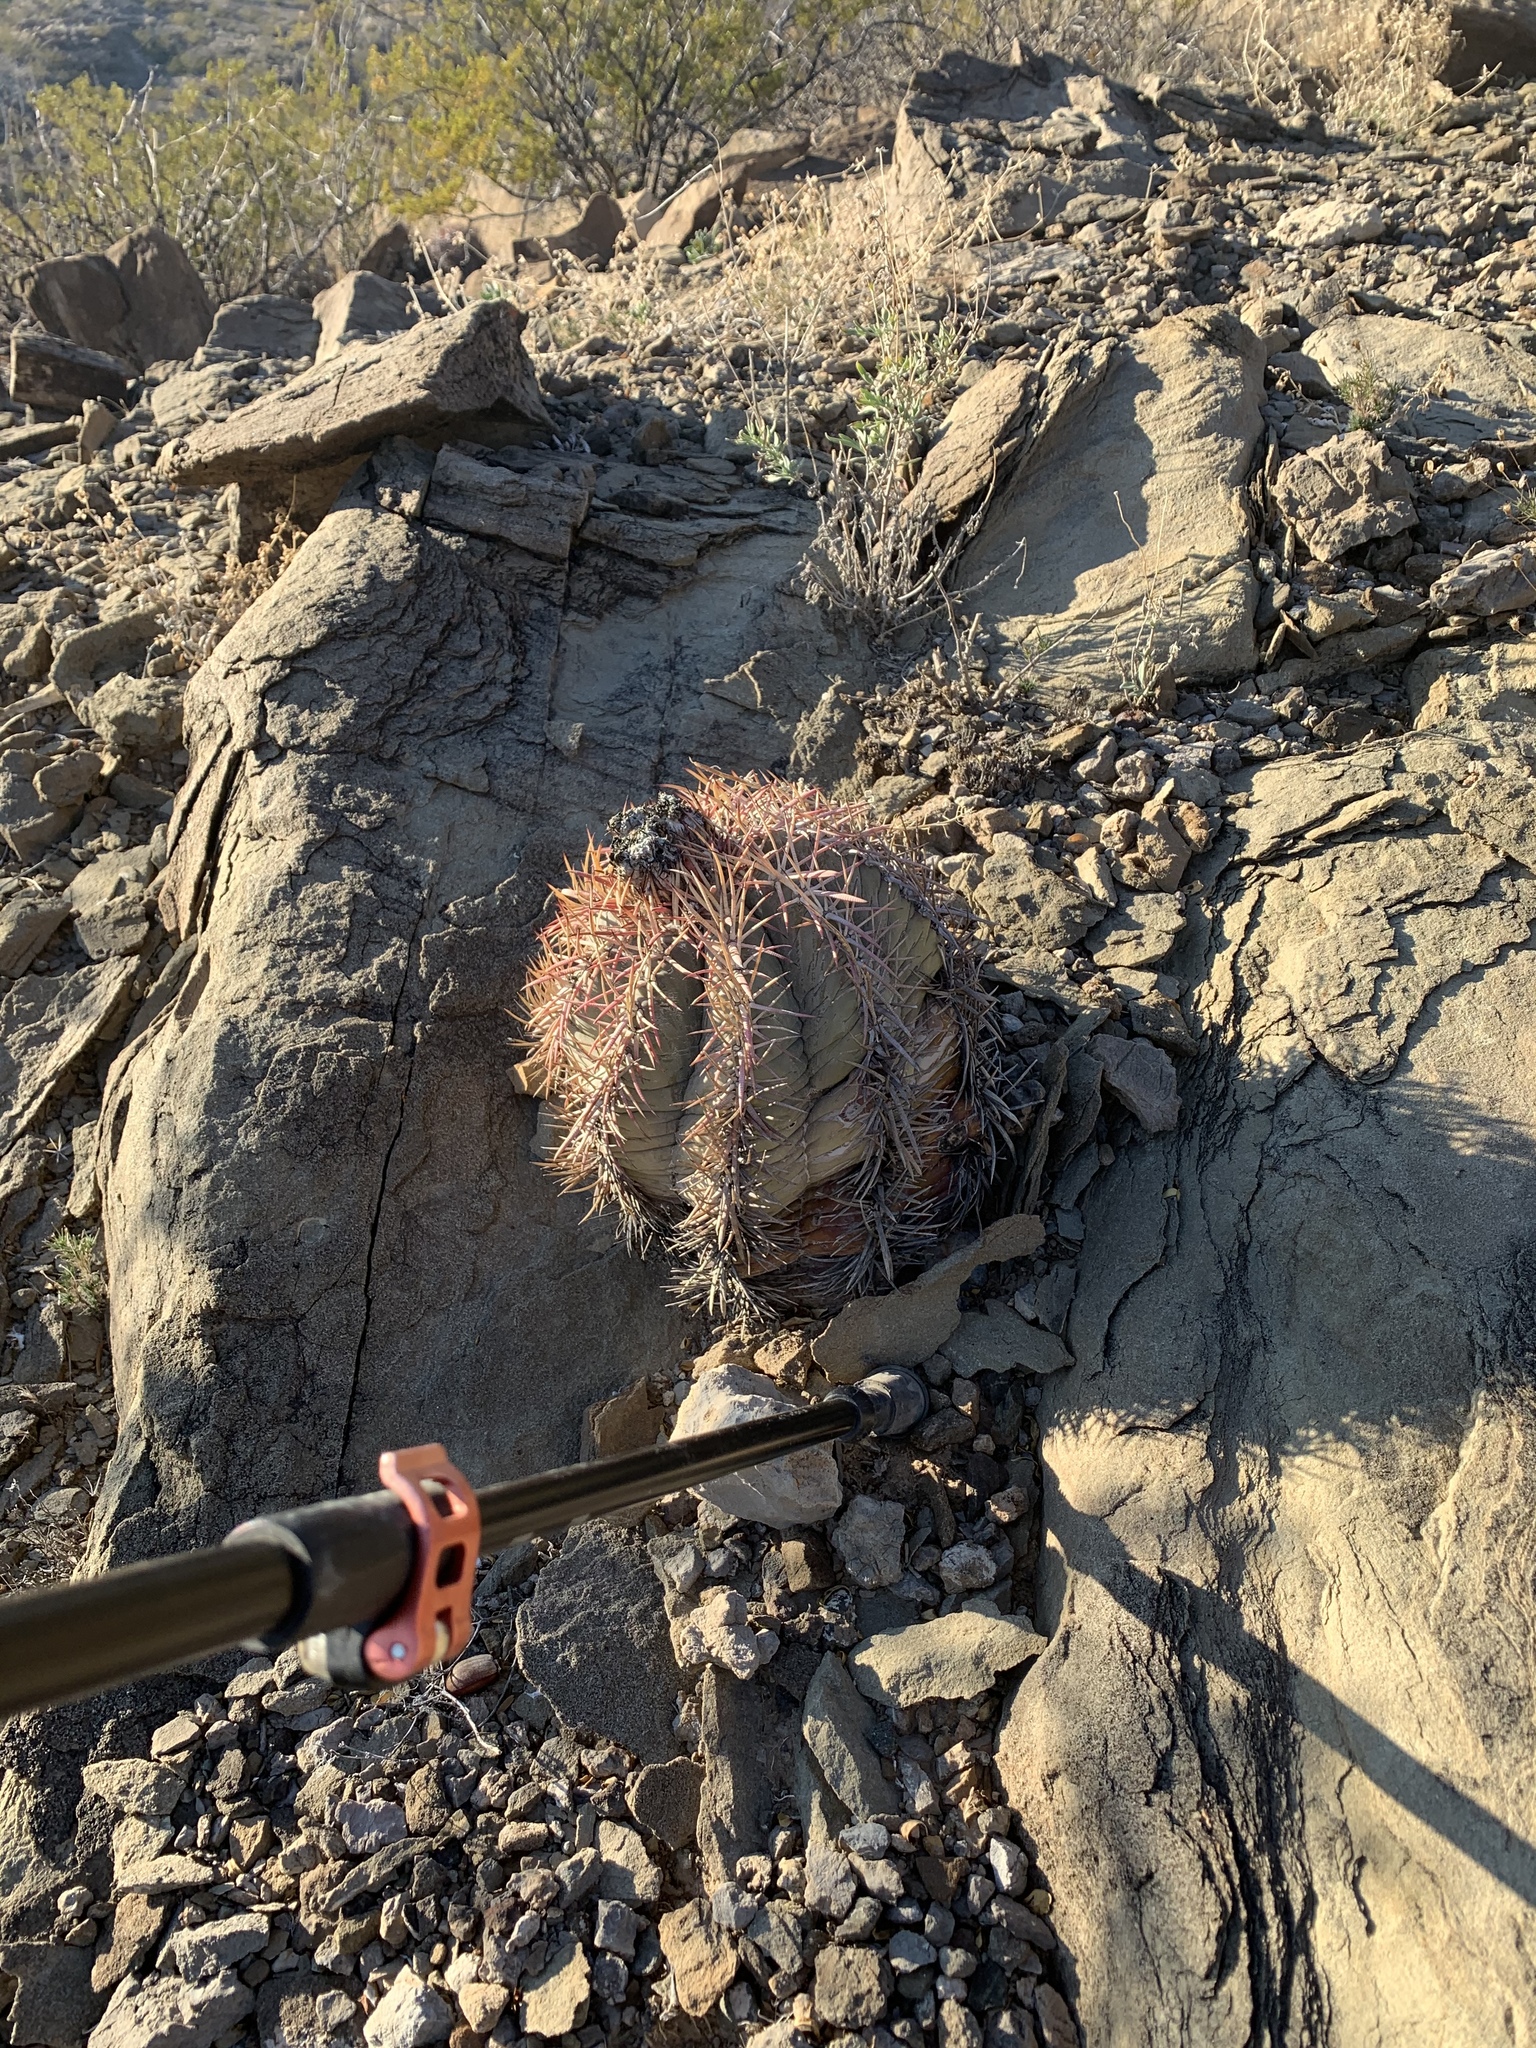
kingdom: Plantae
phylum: Tracheophyta
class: Magnoliopsida
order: Caryophyllales
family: Cactaceae
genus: Echinocactus
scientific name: Echinocactus horizonthalonius
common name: Devilshead
